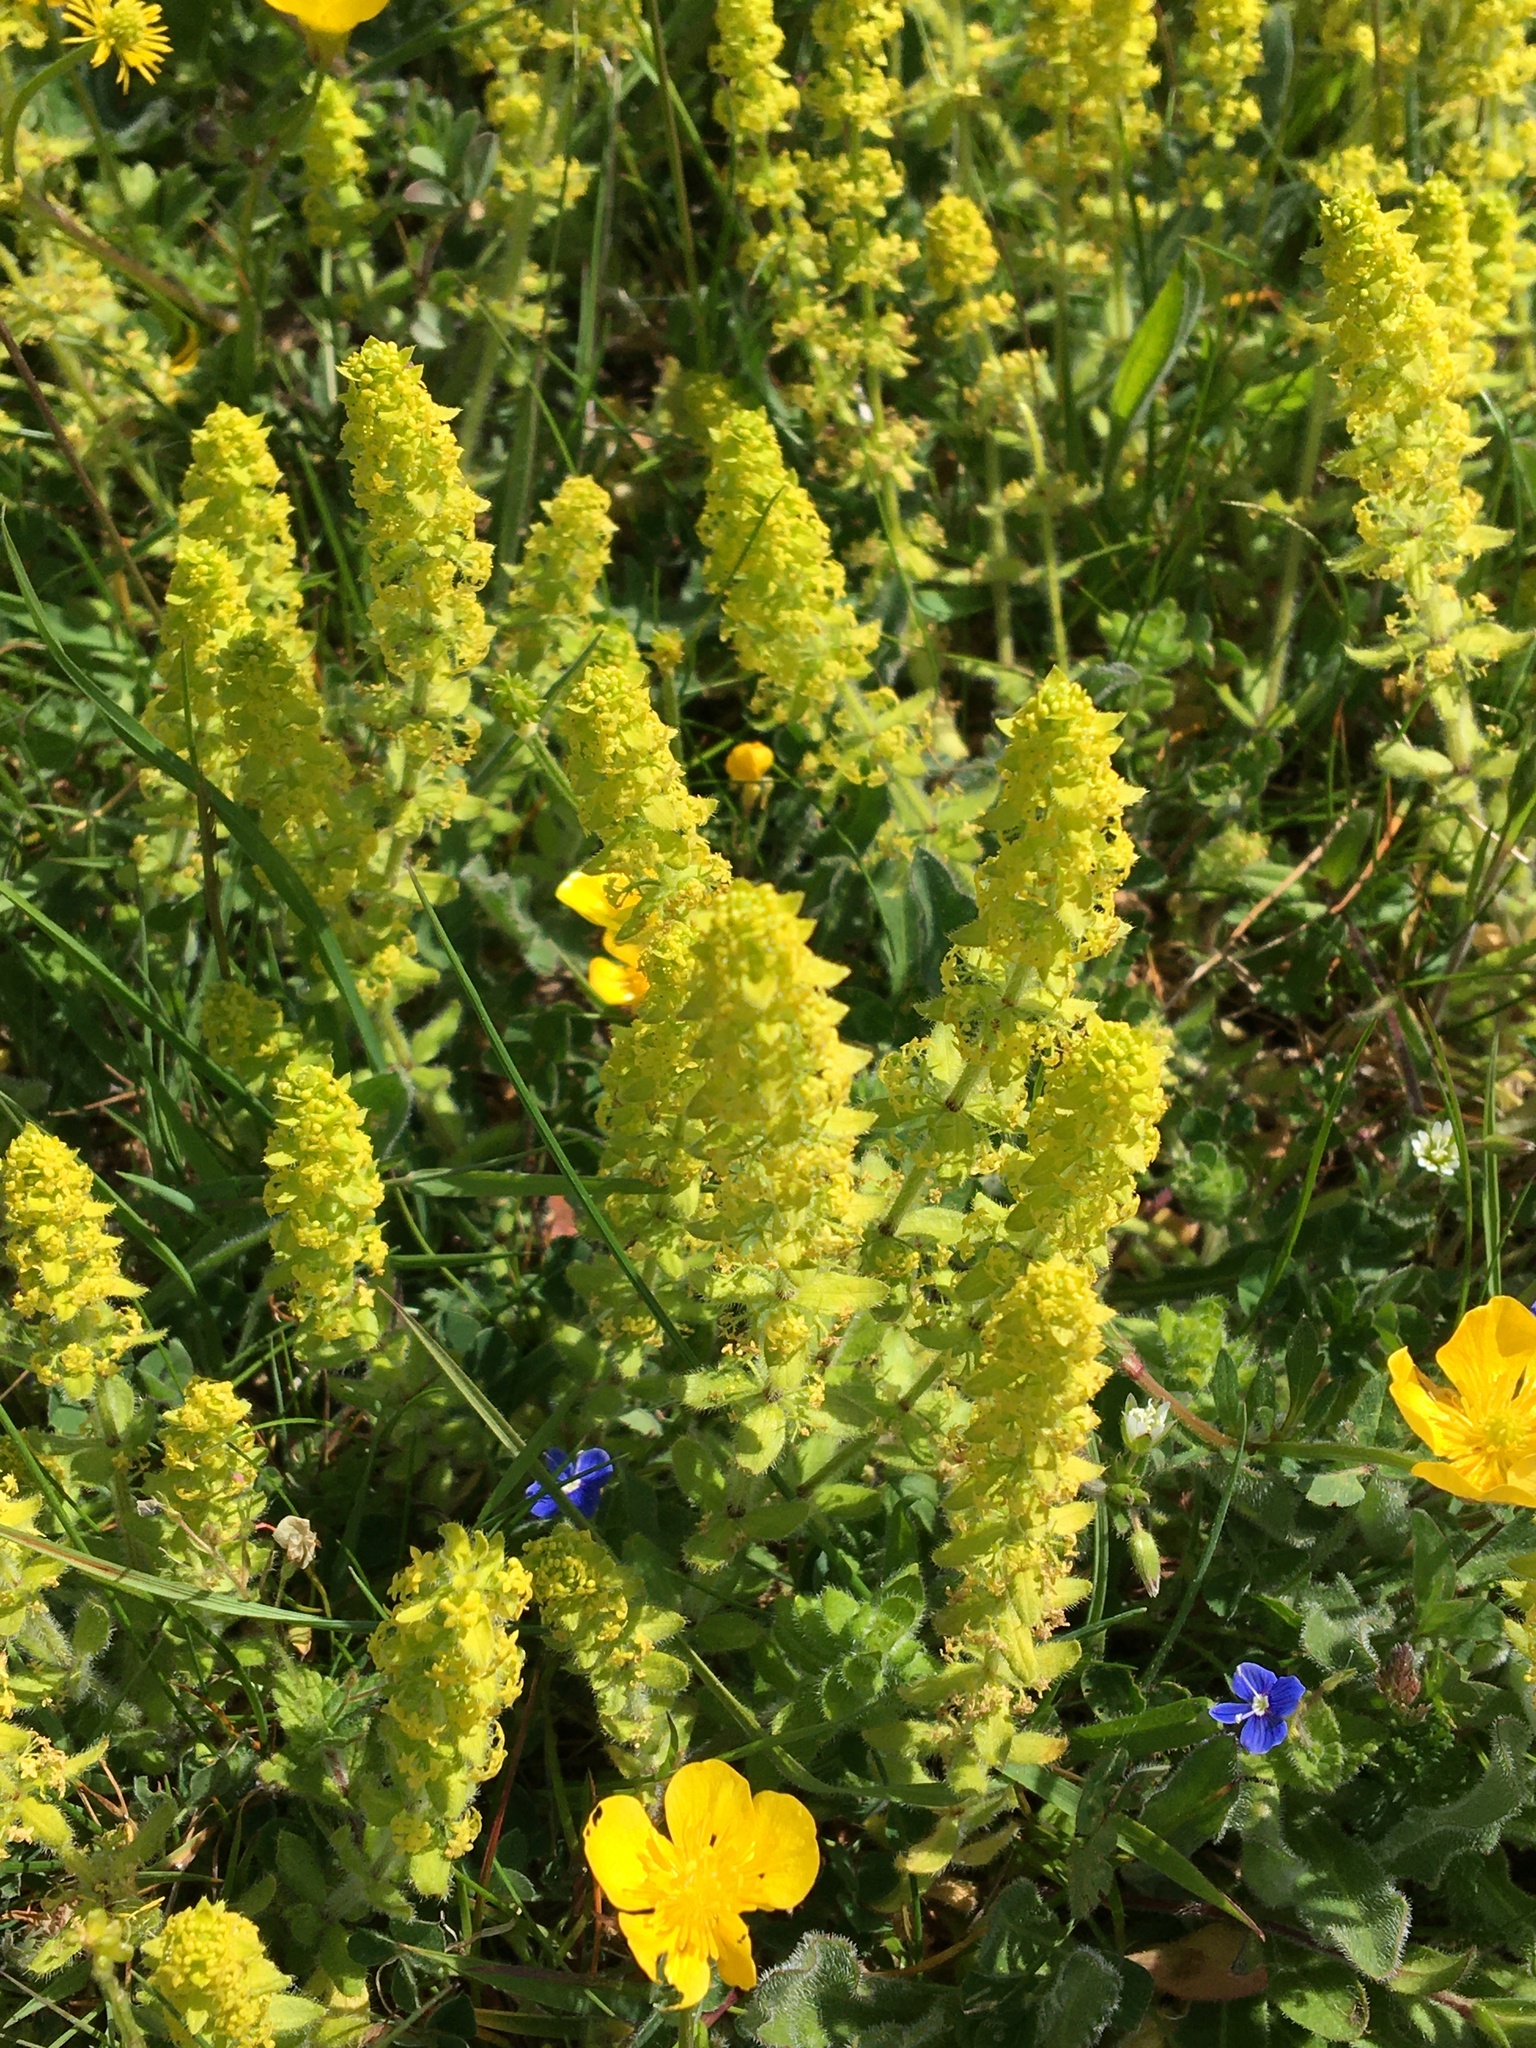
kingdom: Plantae
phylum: Tracheophyta
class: Magnoliopsida
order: Gentianales
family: Rubiaceae
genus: Cruciata
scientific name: Cruciata laevipes
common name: Crosswort
